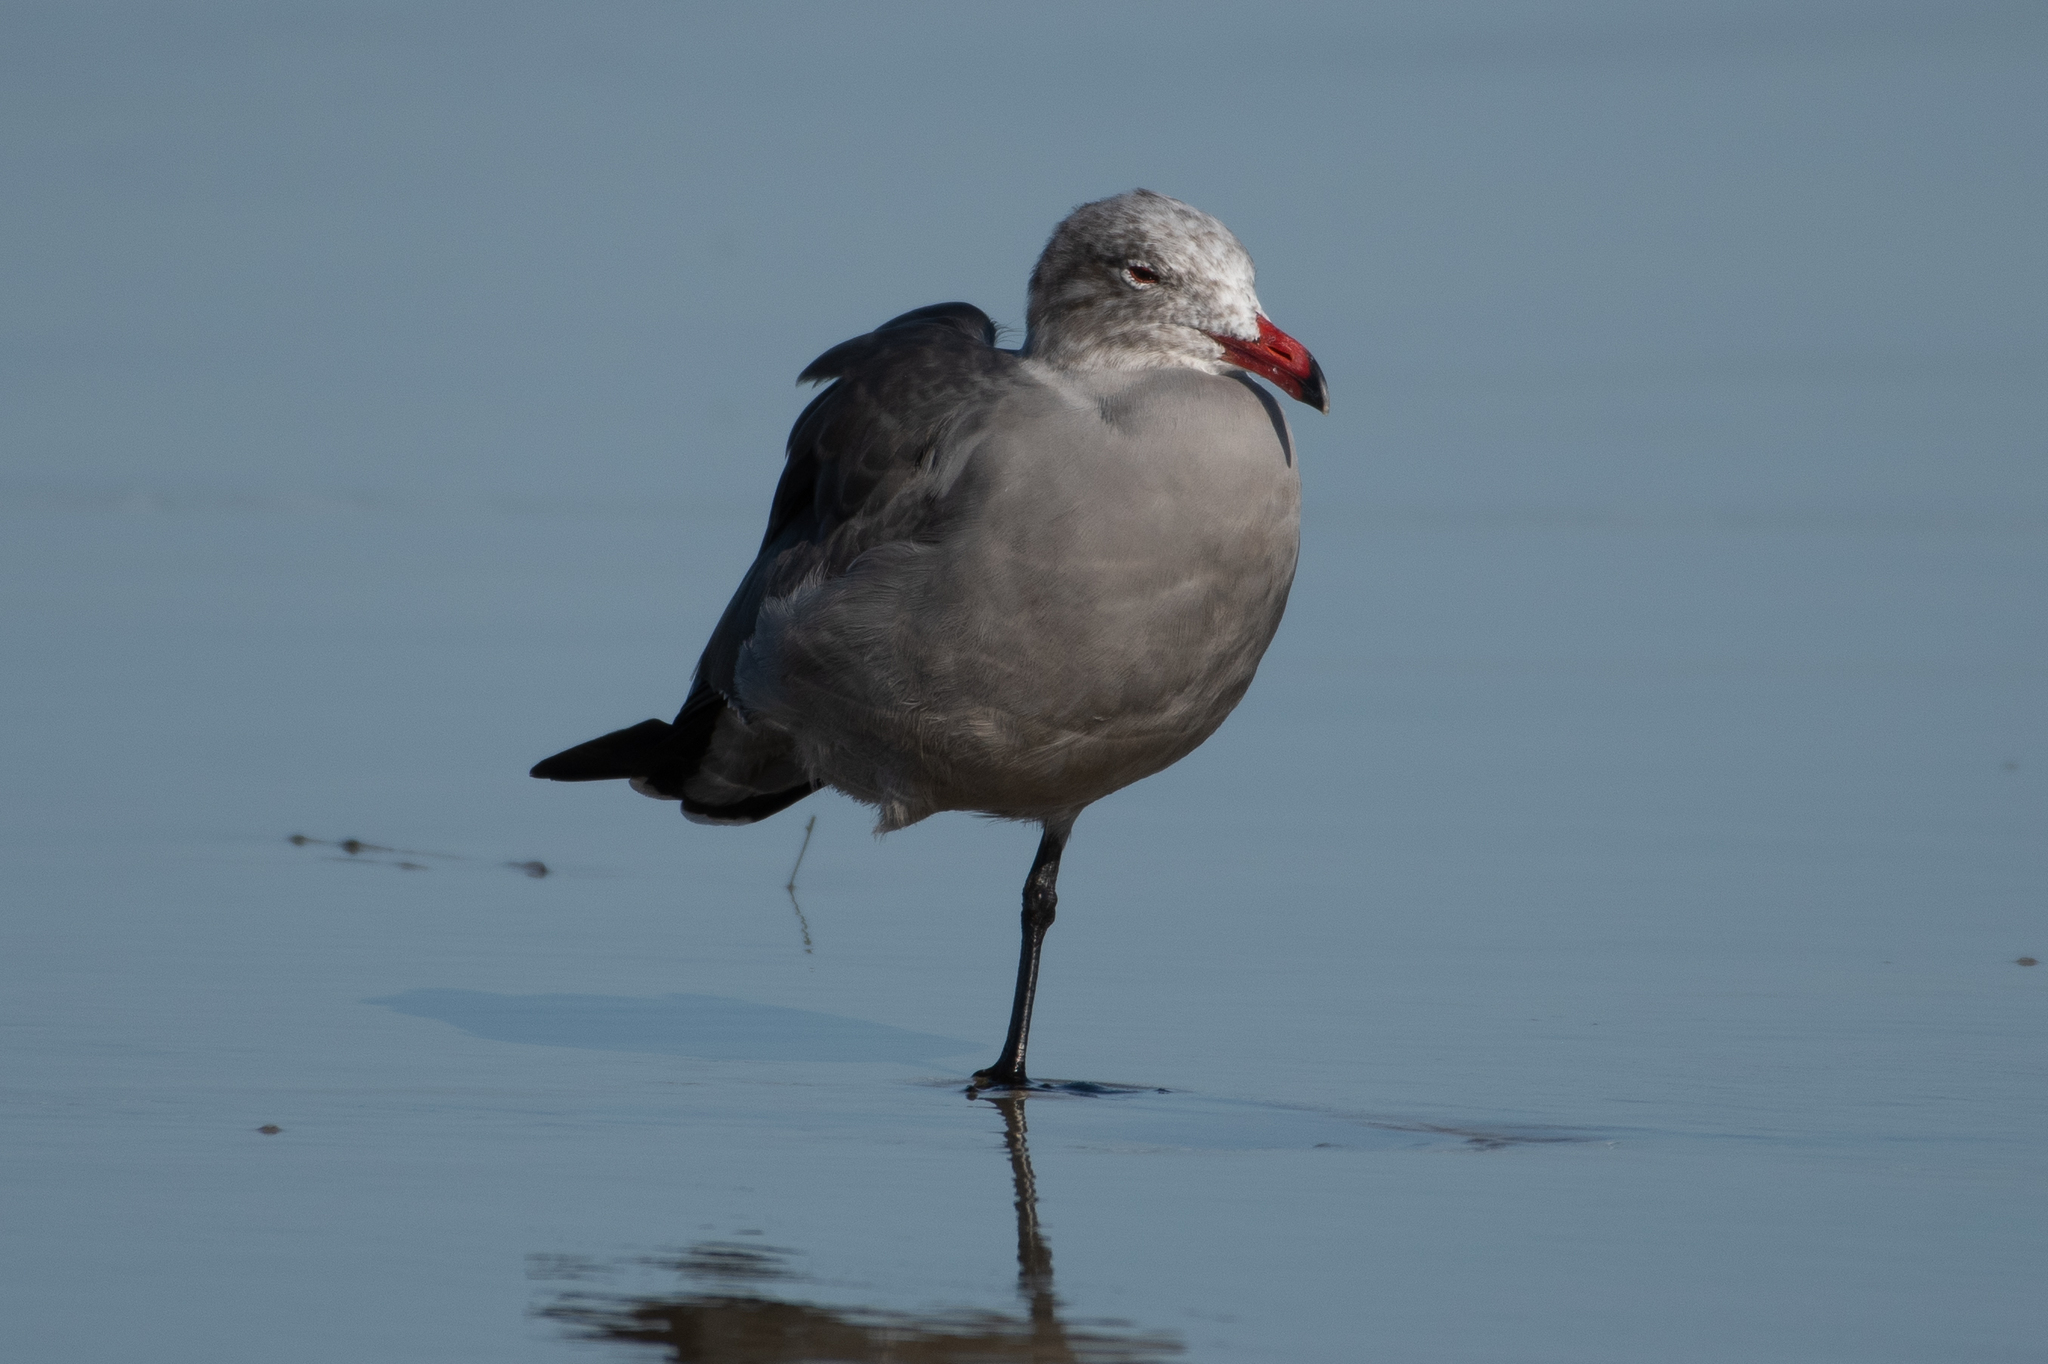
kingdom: Animalia
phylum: Chordata
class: Aves
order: Charadriiformes
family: Laridae
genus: Larus
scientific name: Larus heermanni
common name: Heermann's gull
